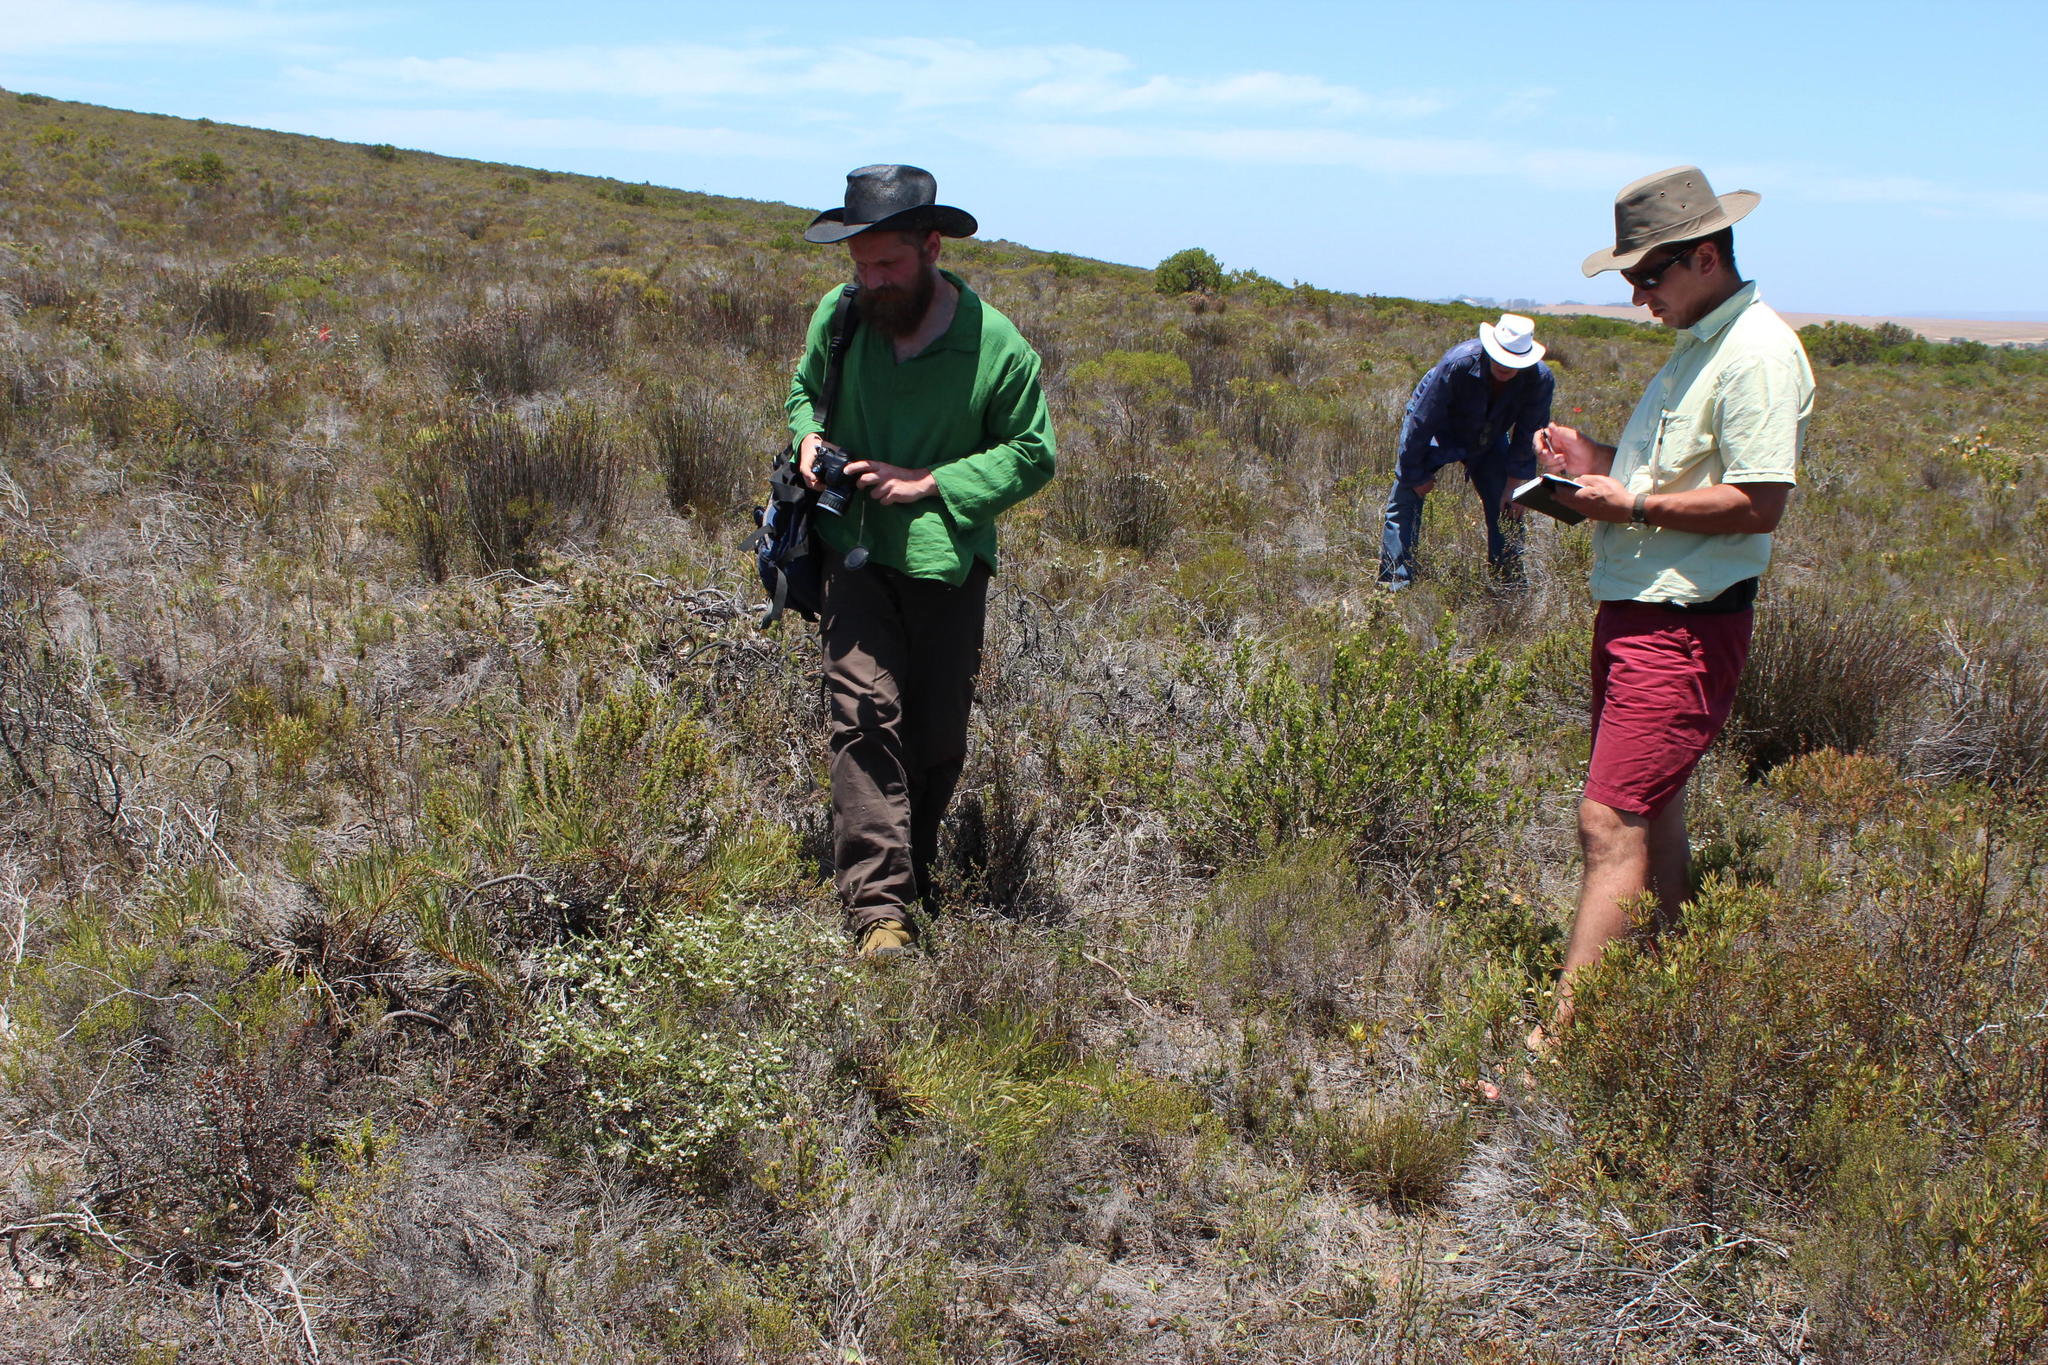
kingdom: Plantae
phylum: Tracheophyta
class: Magnoliopsida
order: Rosales
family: Rhamnaceae
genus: Phylica
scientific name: Phylica imberbis
